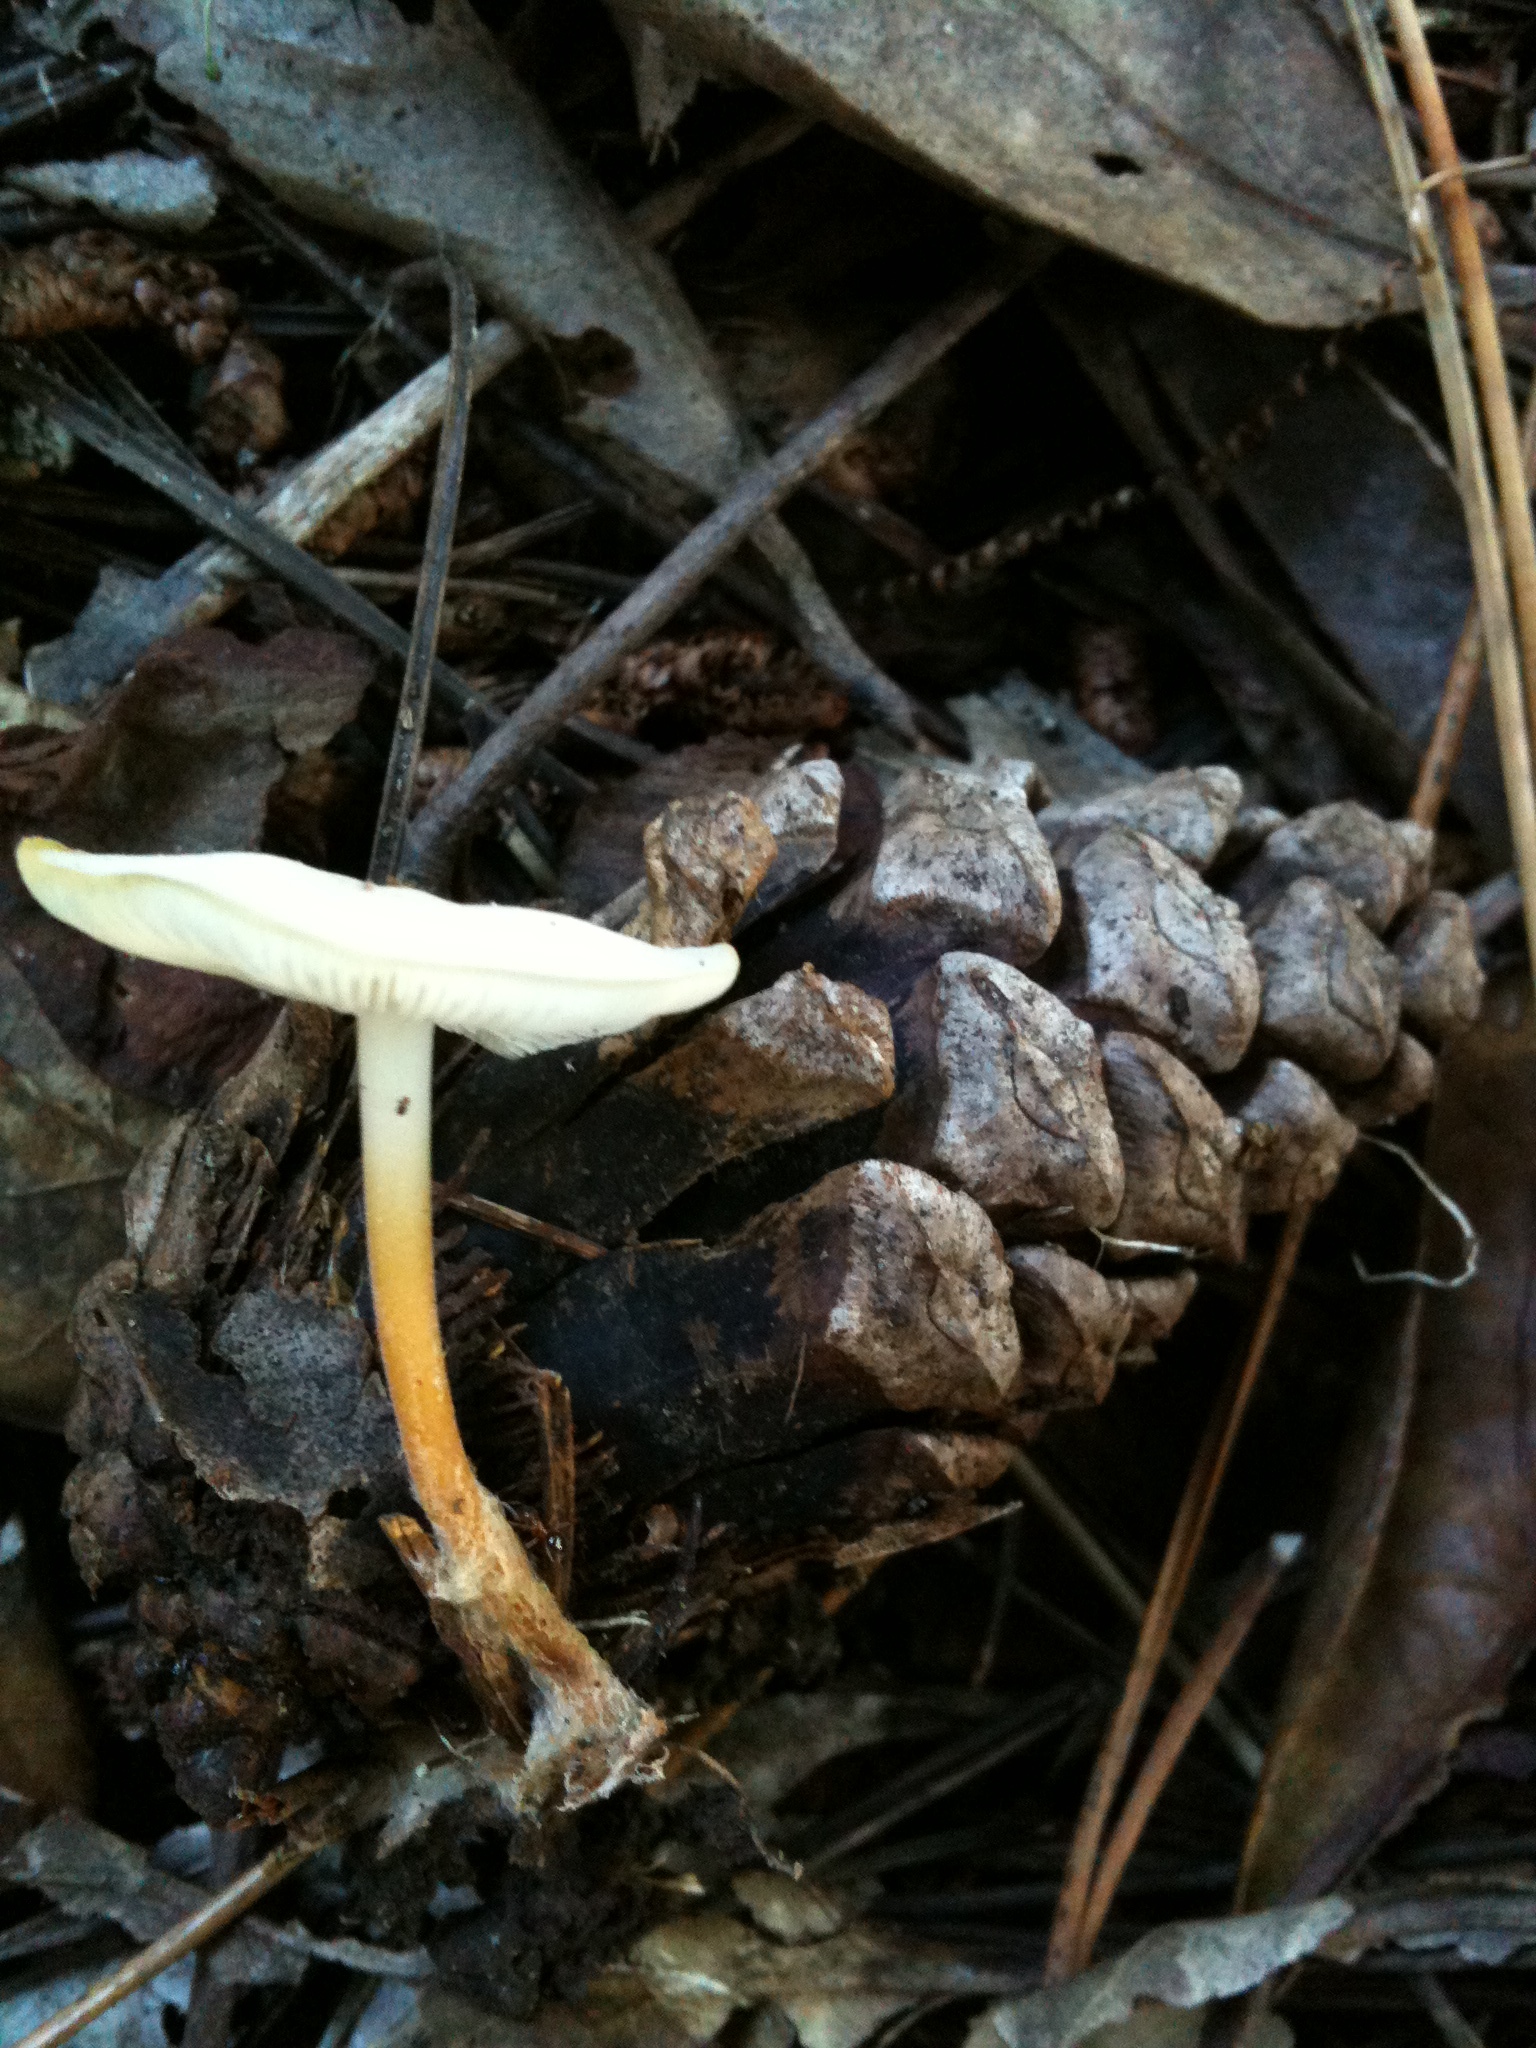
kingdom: Fungi
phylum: Basidiomycota
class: Agaricomycetes
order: Agaricales
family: Physalacriaceae
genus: Strobilurus
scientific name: Strobilurus stephanocystis
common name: Russian conecap
